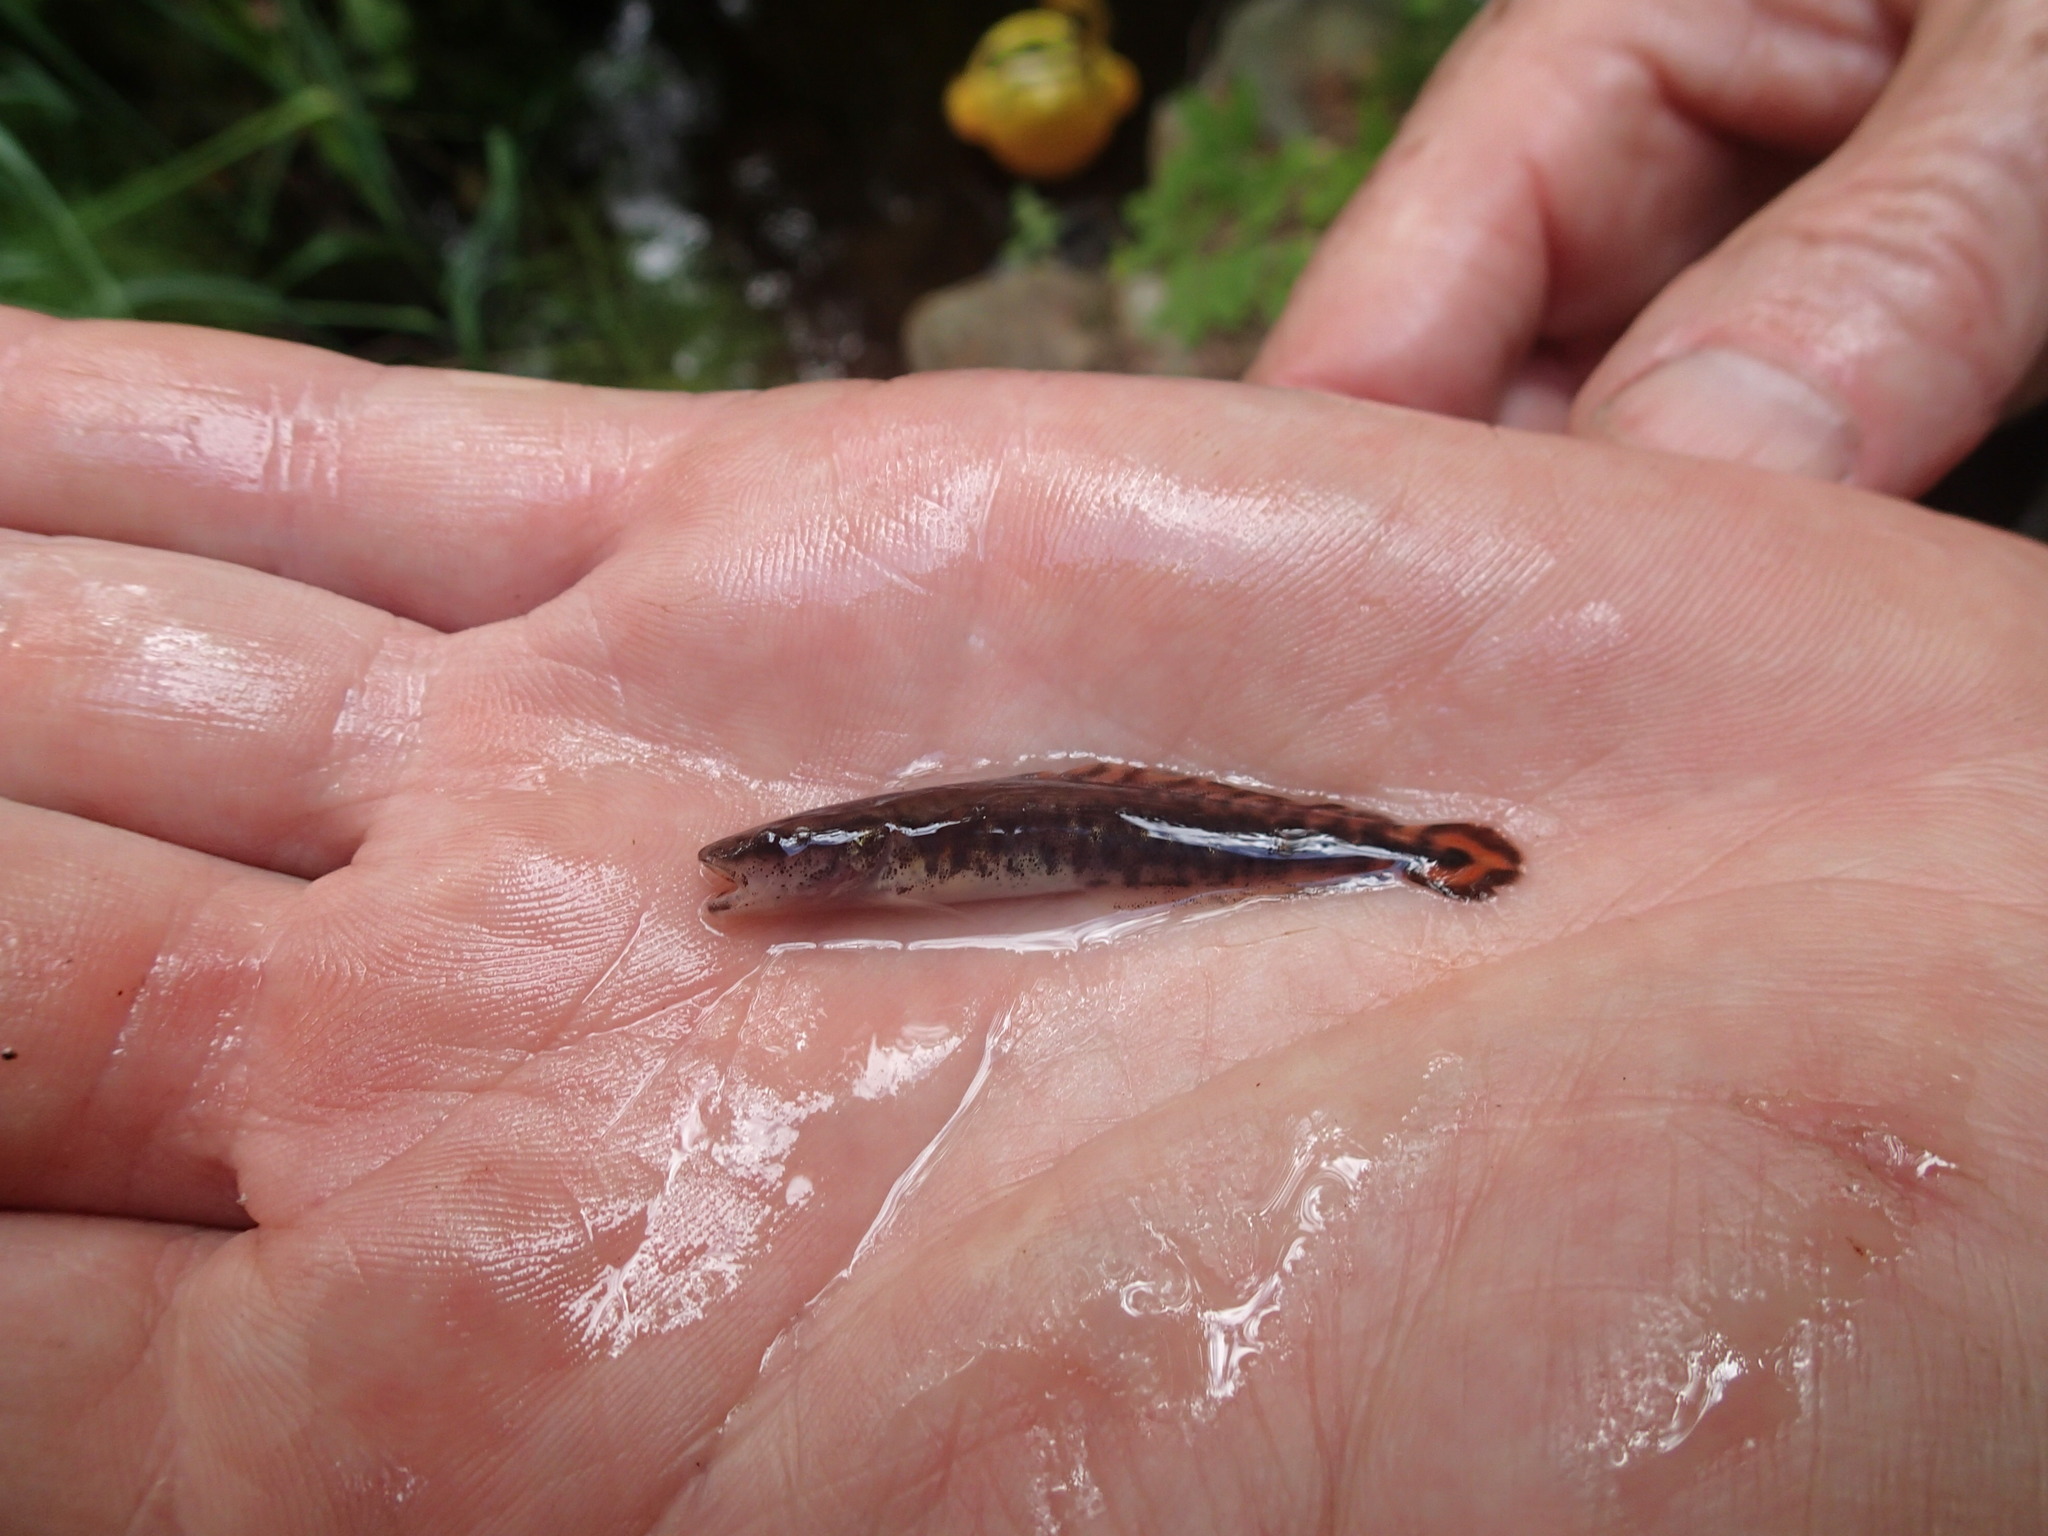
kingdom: Animalia
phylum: Chordata
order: Gadiformes
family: Lotidae
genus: Lota
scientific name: Lota lota
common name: Burbot
